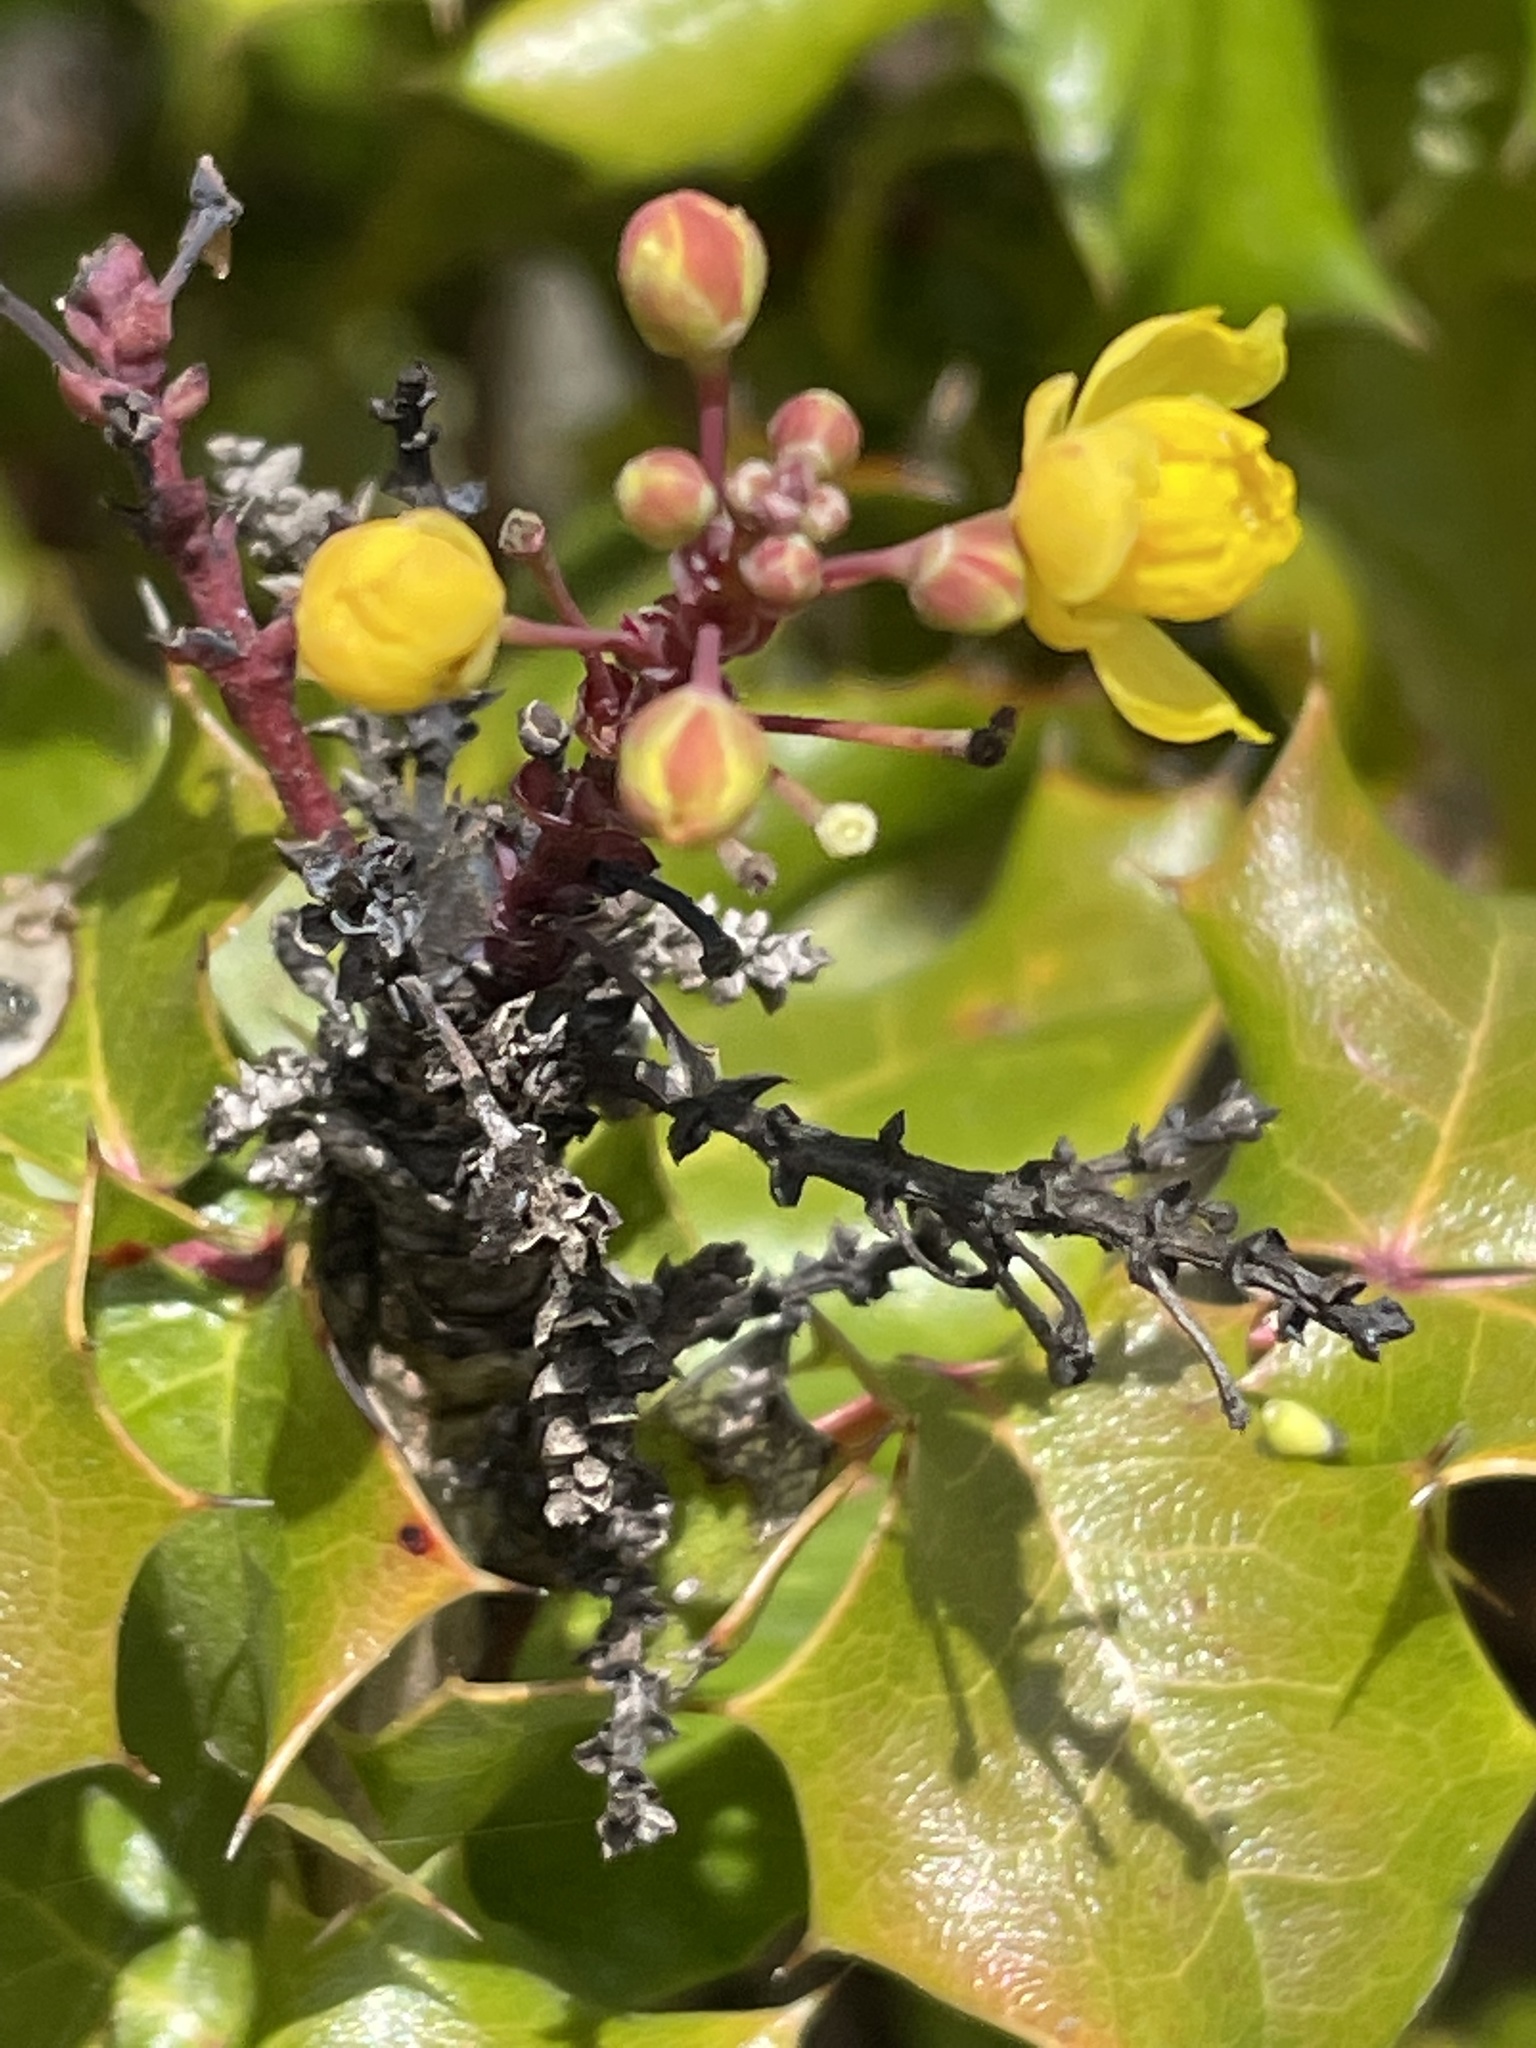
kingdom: Plantae
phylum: Tracheophyta
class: Magnoliopsida
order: Ranunculales
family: Berberidaceae
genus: Mahonia
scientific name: Mahonia
